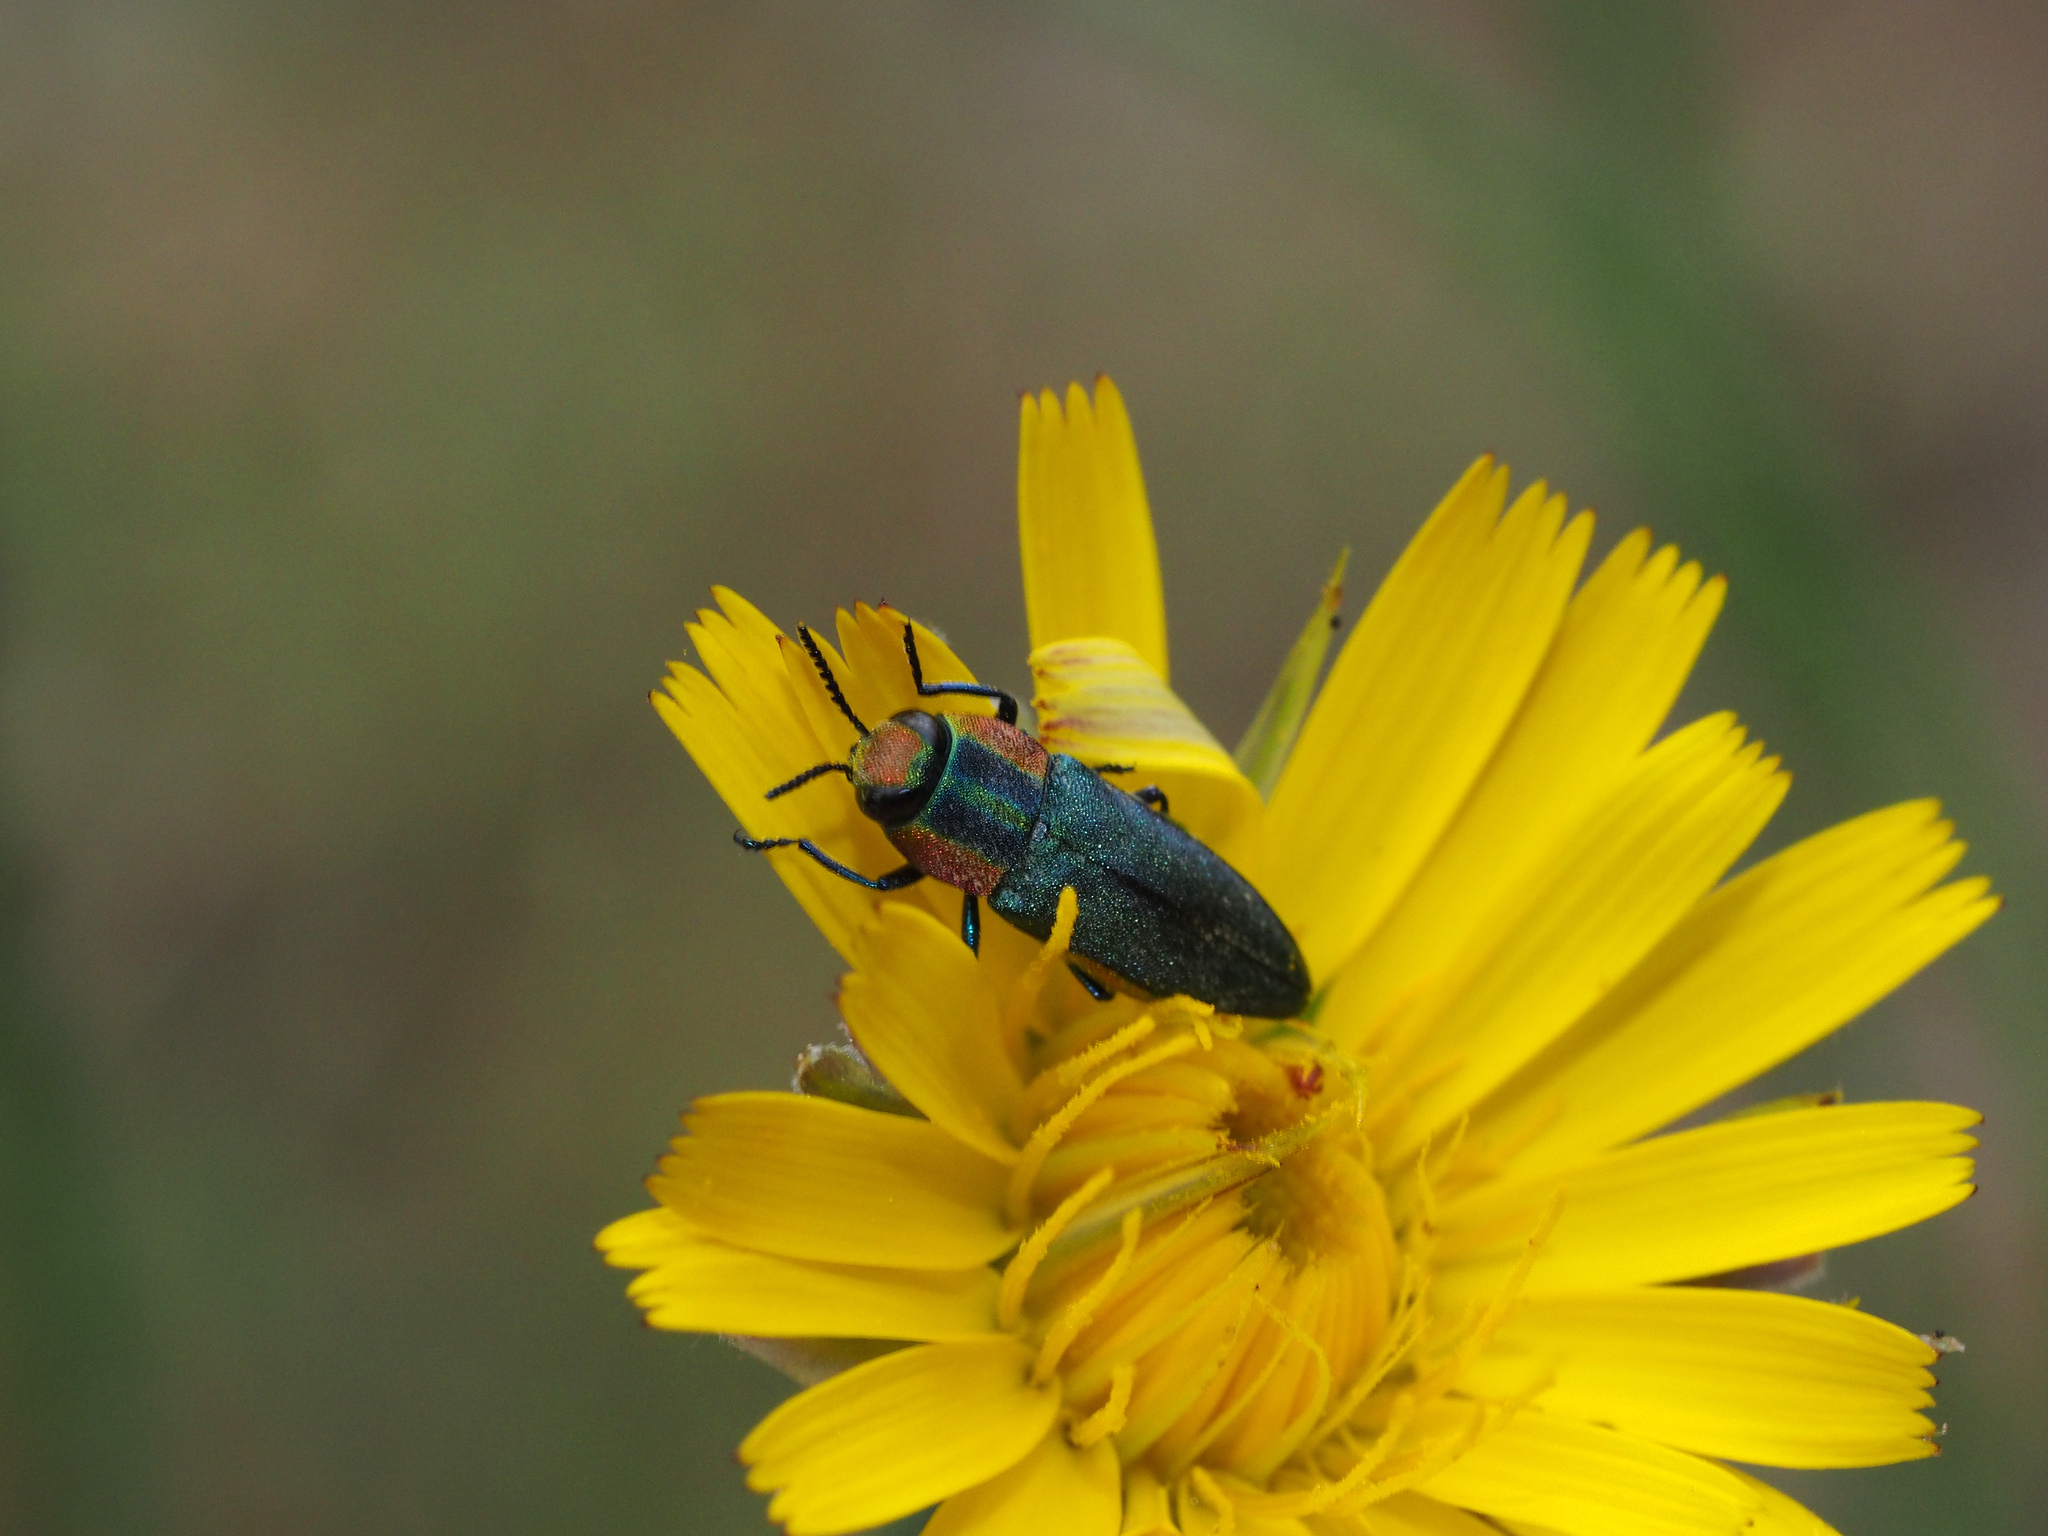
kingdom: Animalia
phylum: Arthropoda
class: Insecta
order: Coleoptera
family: Buprestidae
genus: Anthaxia
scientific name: Anthaxia hungarica
